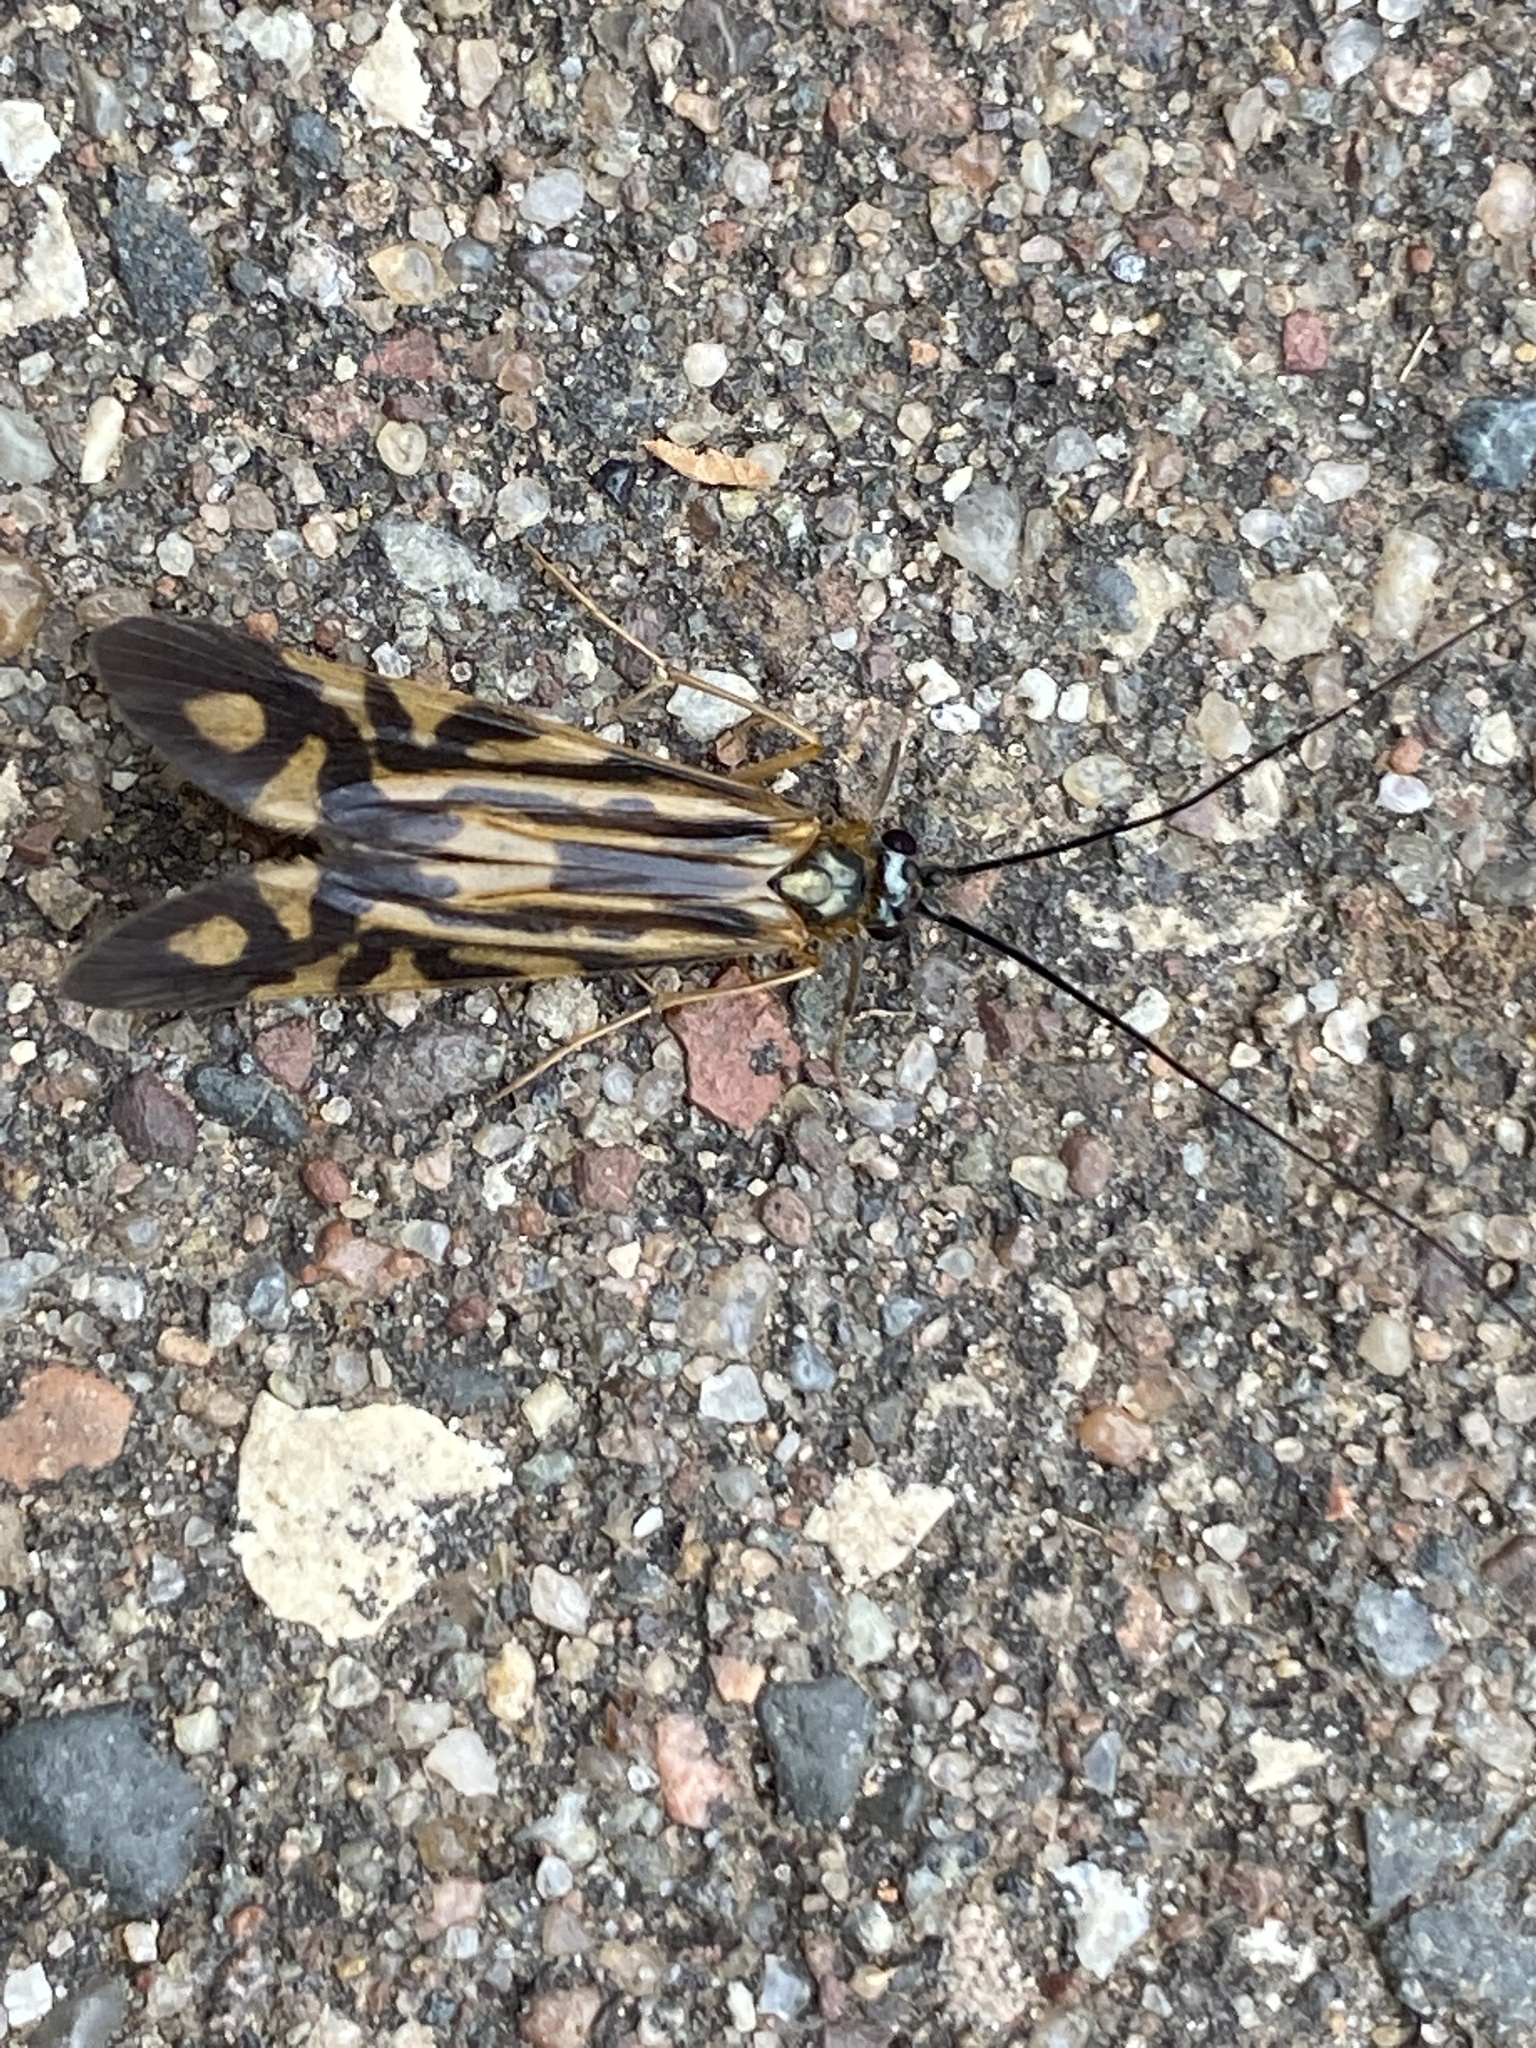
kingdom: Animalia
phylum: Arthropoda
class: Insecta
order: Trichoptera
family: Hydropsychidae
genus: Macrostemum
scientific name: Macrostemum zebratum
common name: Zebra caddisfly
